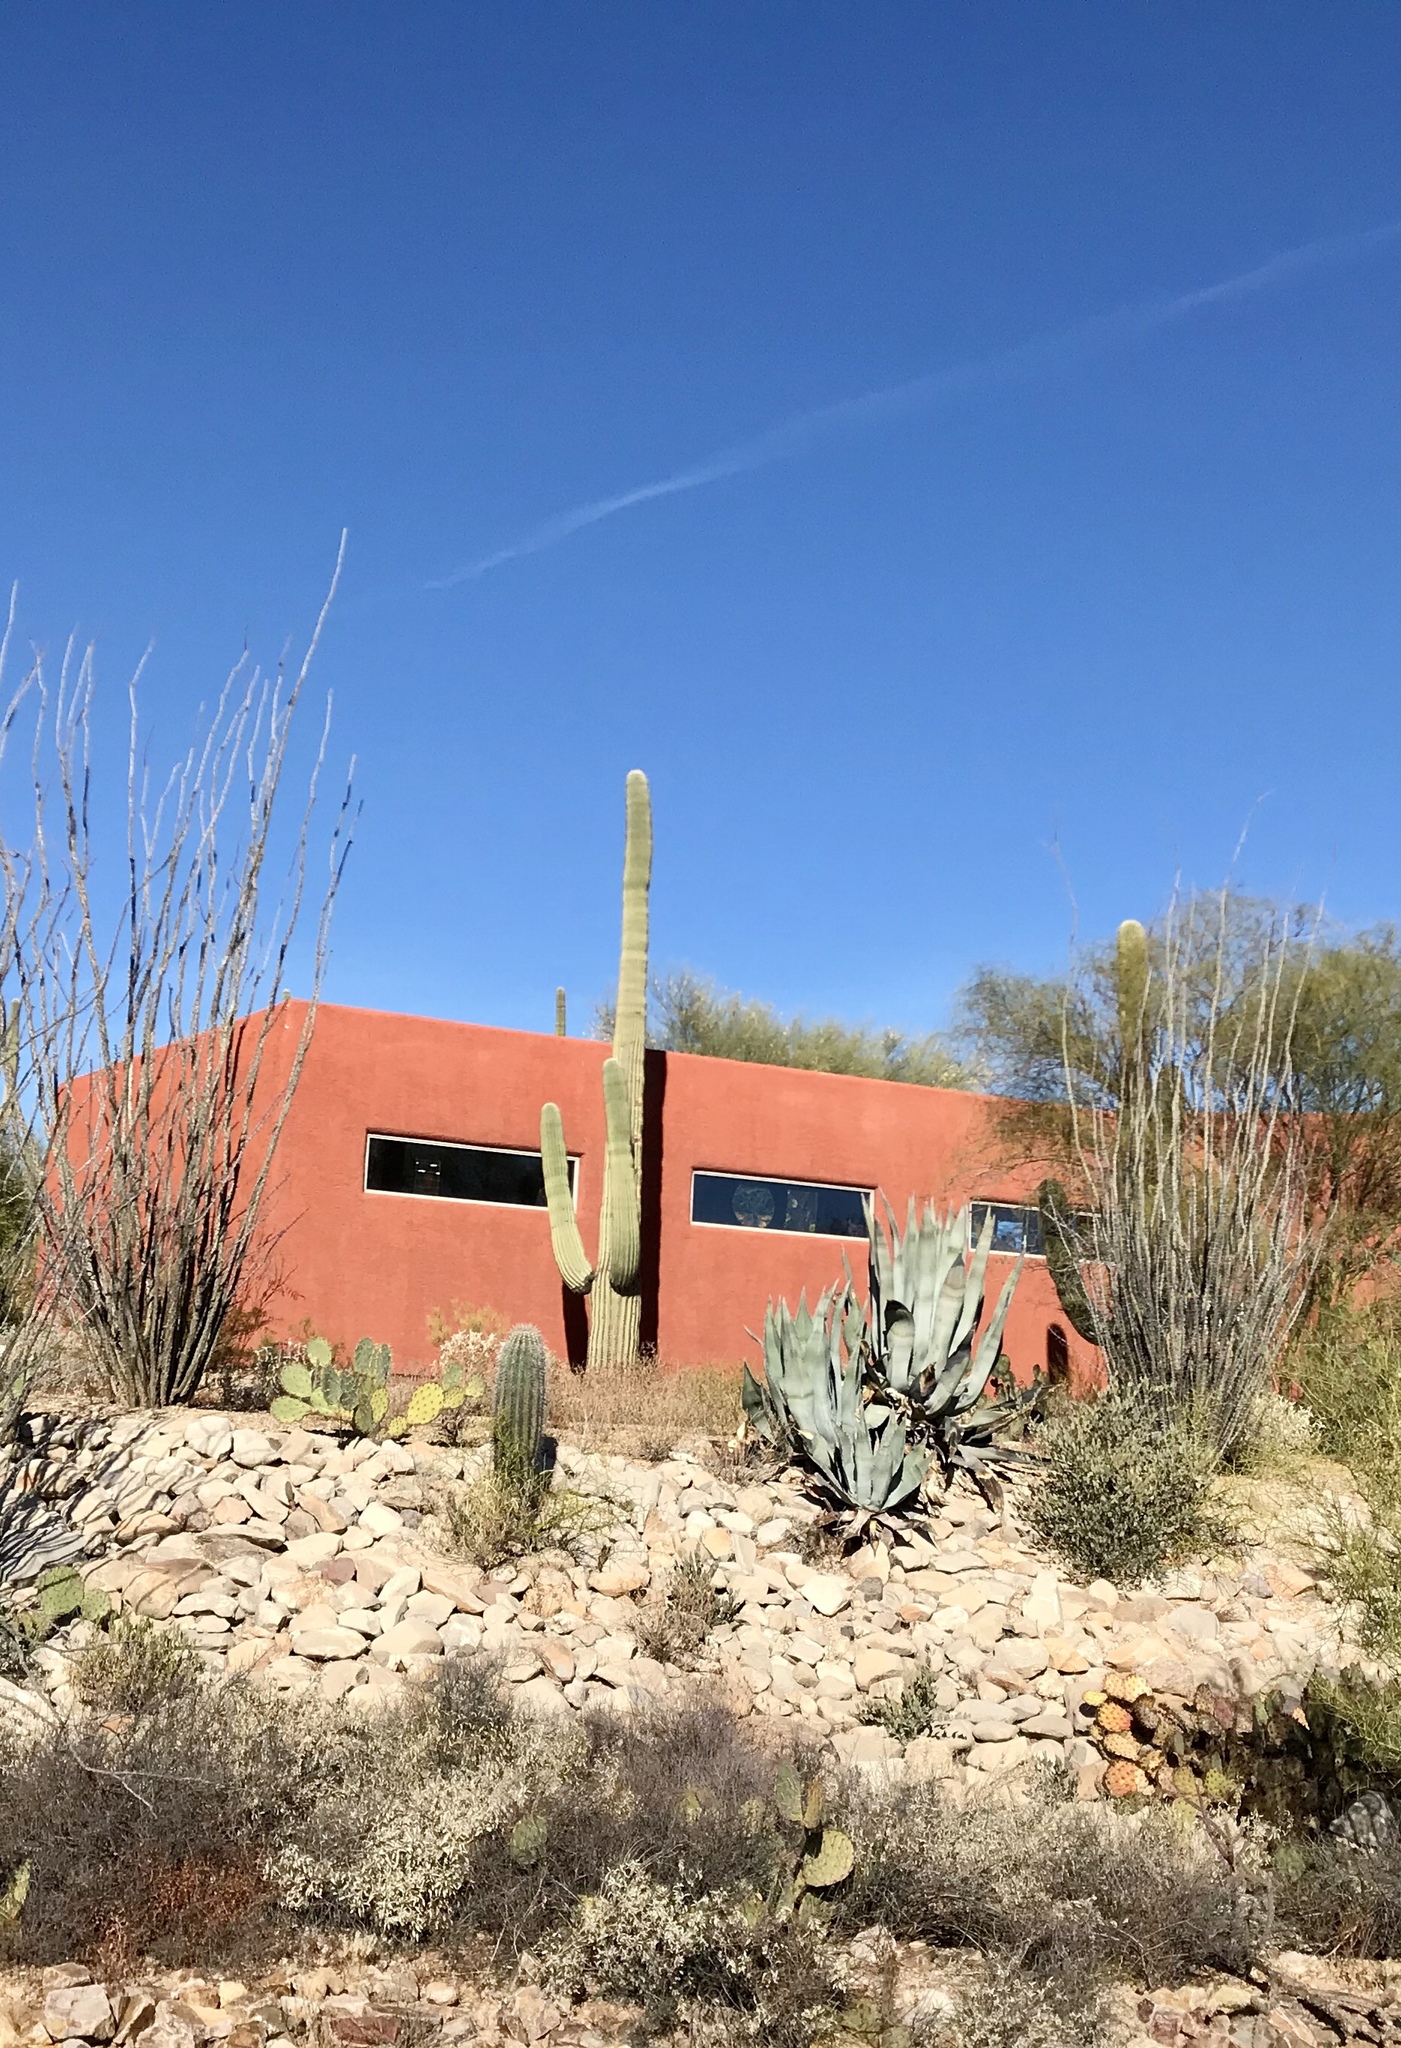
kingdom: Plantae
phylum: Tracheophyta
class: Magnoliopsida
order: Caryophyllales
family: Cactaceae
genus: Carnegiea
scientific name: Carnegiea gigantea
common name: Saguaro
